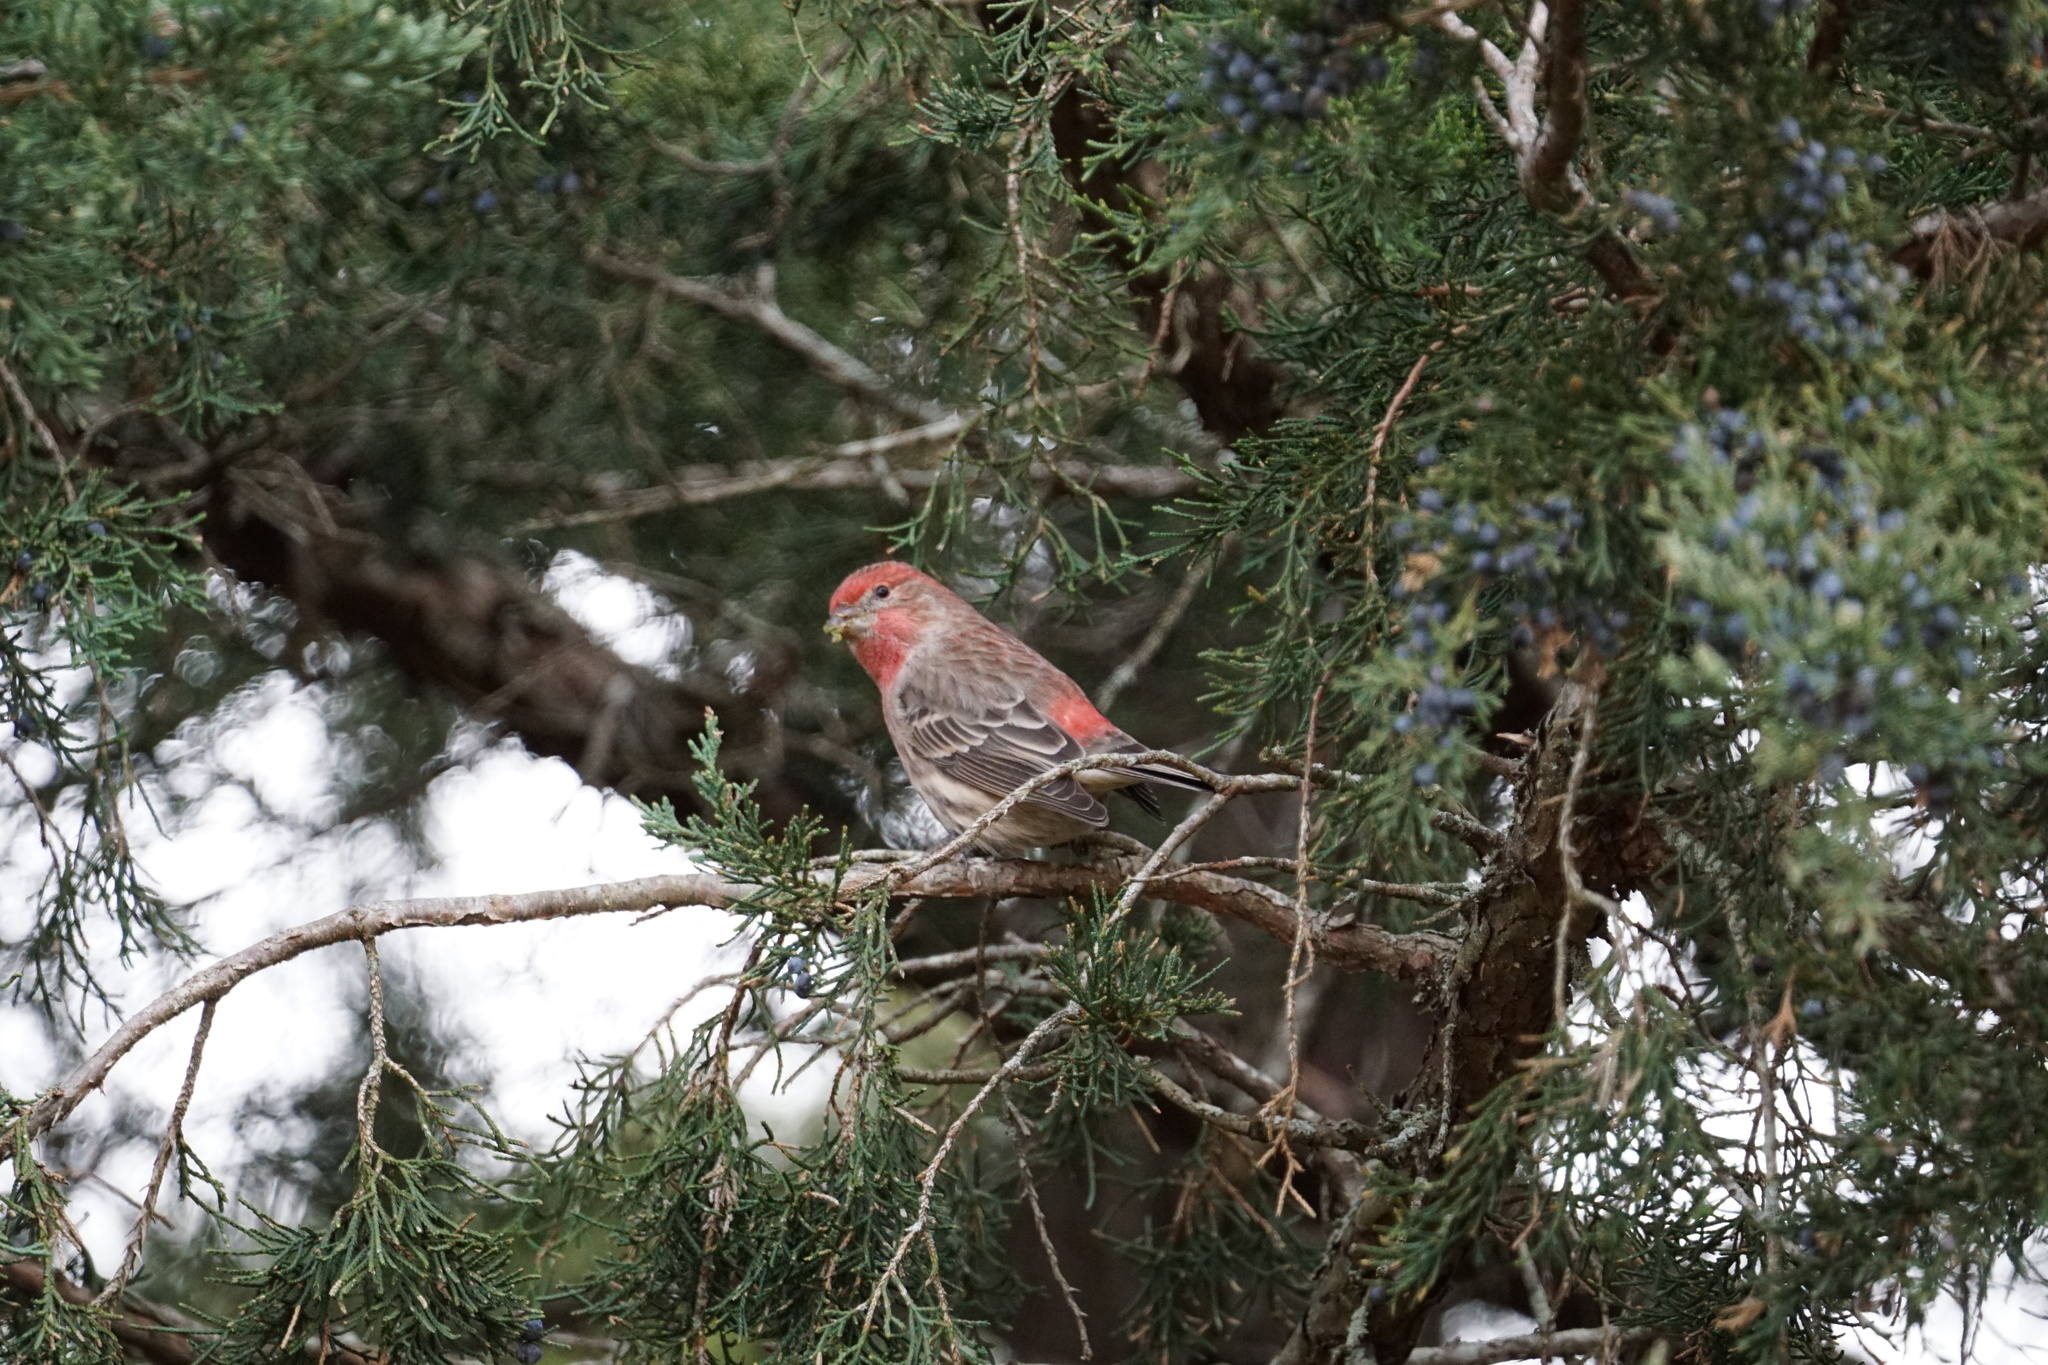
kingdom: Animalia
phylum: Chordata
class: Aves
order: Passeriformes
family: Fringillidae
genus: Haemorhous
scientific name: Haemorhous mexicanus
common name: House finch
